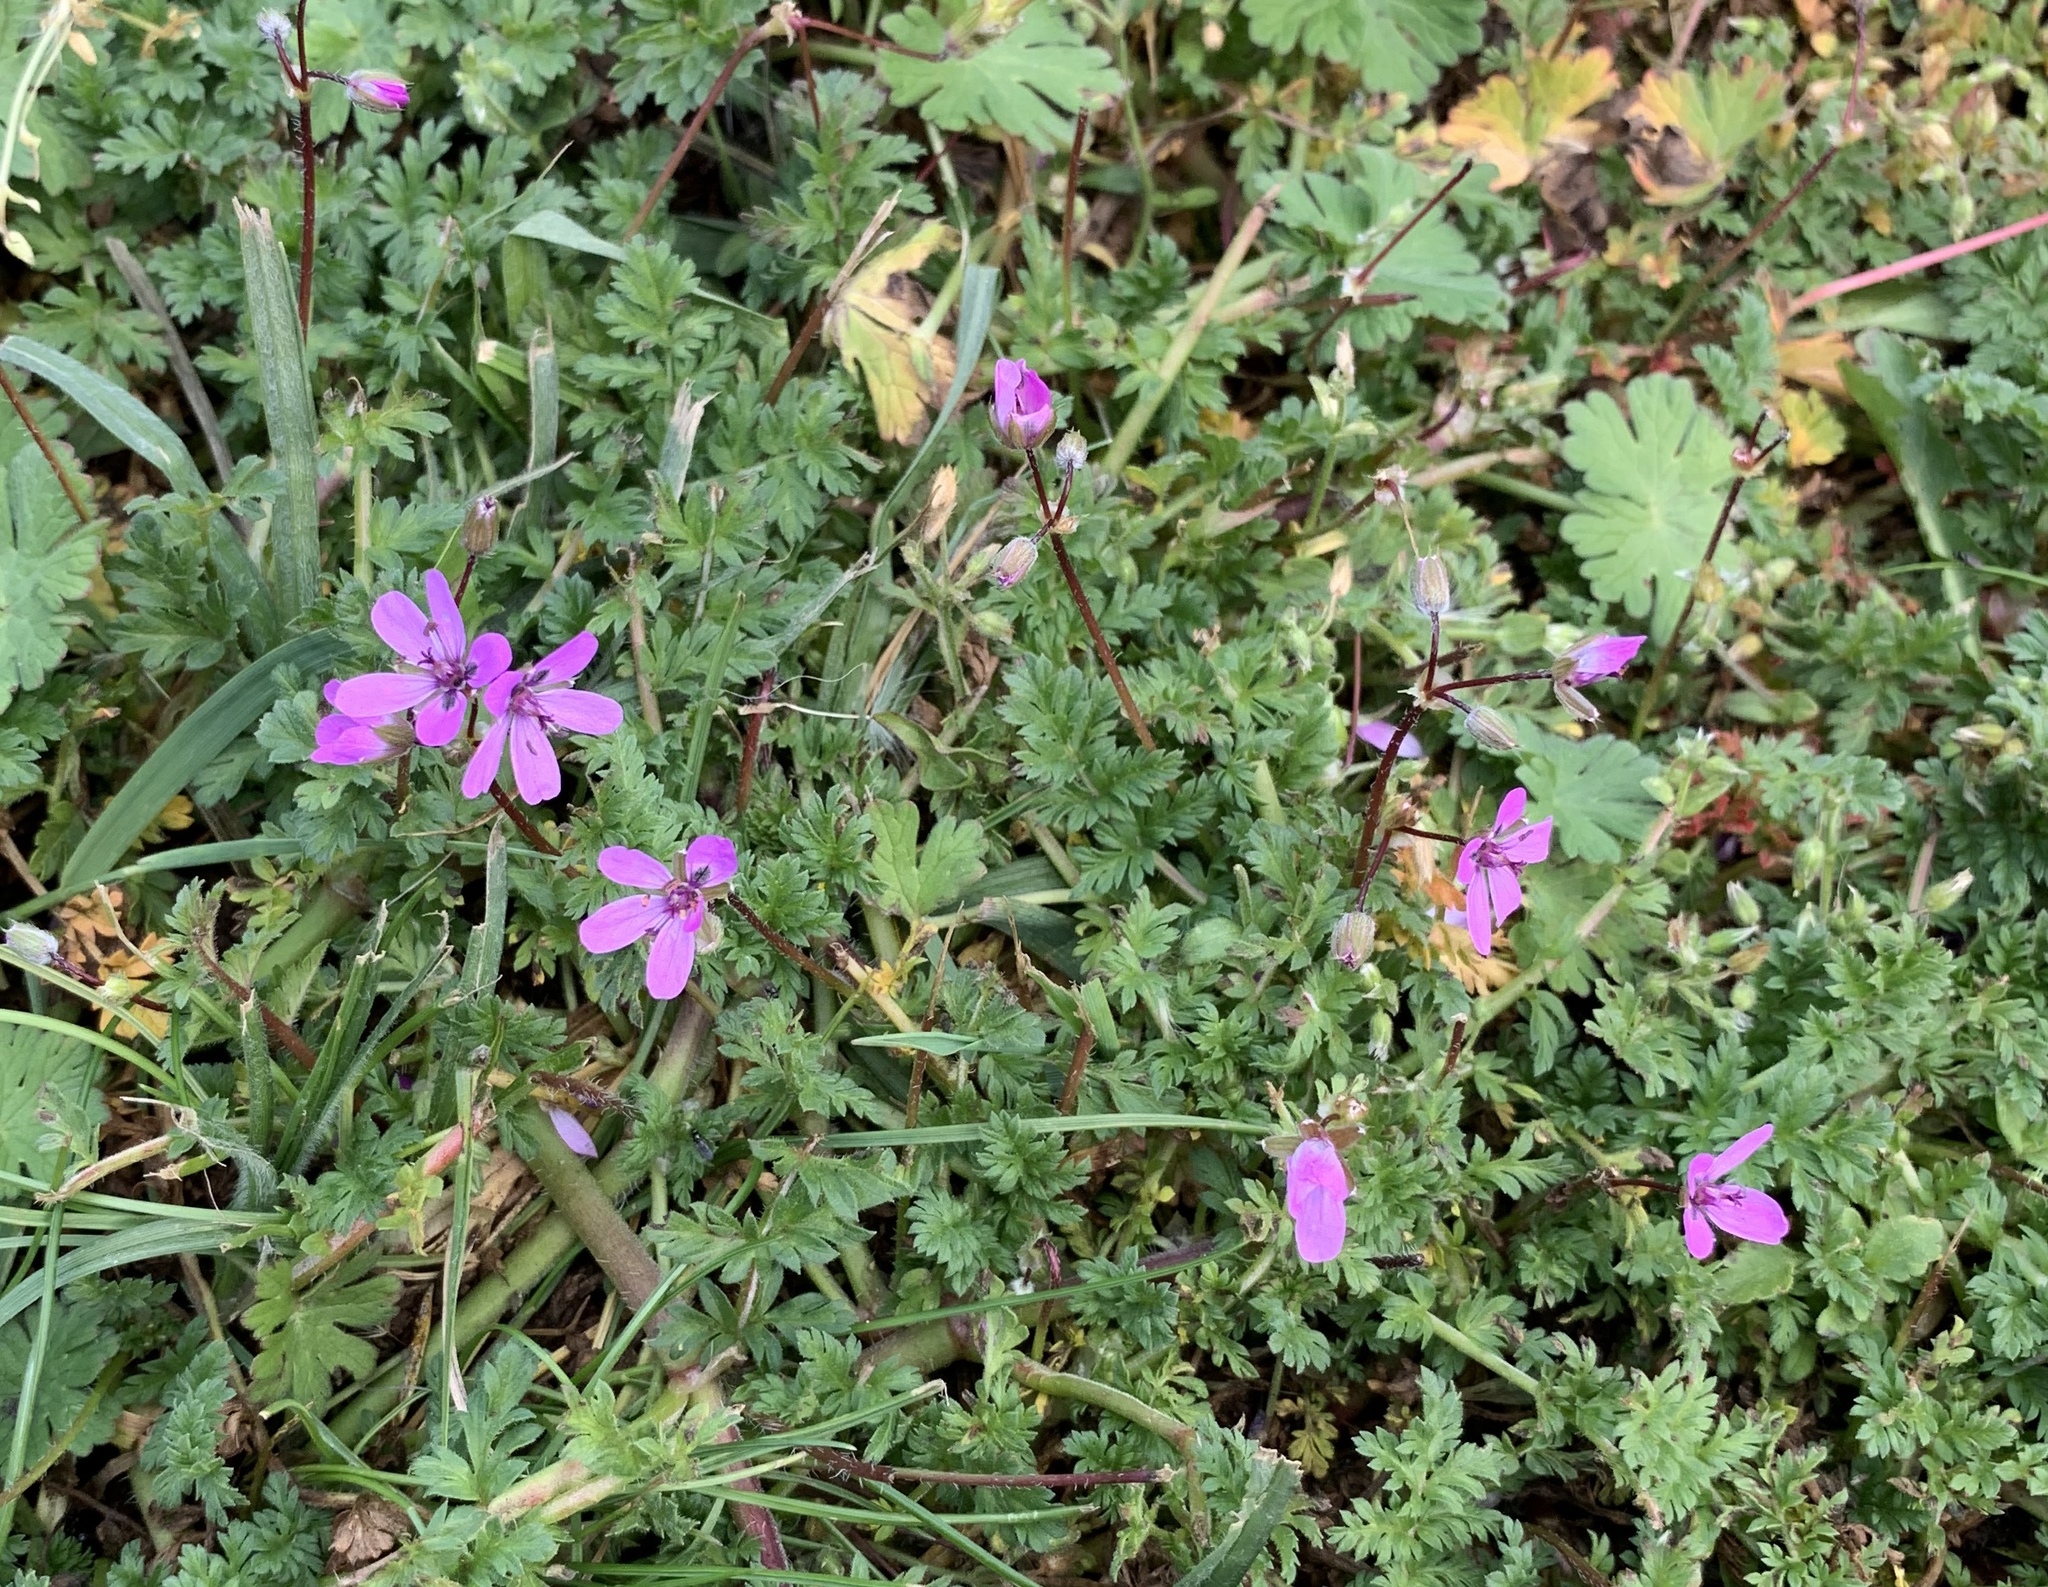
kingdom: Plantae
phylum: Tracheophyta
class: Magnoliopsida
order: Geraniales
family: Geraniaceae
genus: Erodium
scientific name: Erodium cicutarium
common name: Common stork's-bill
